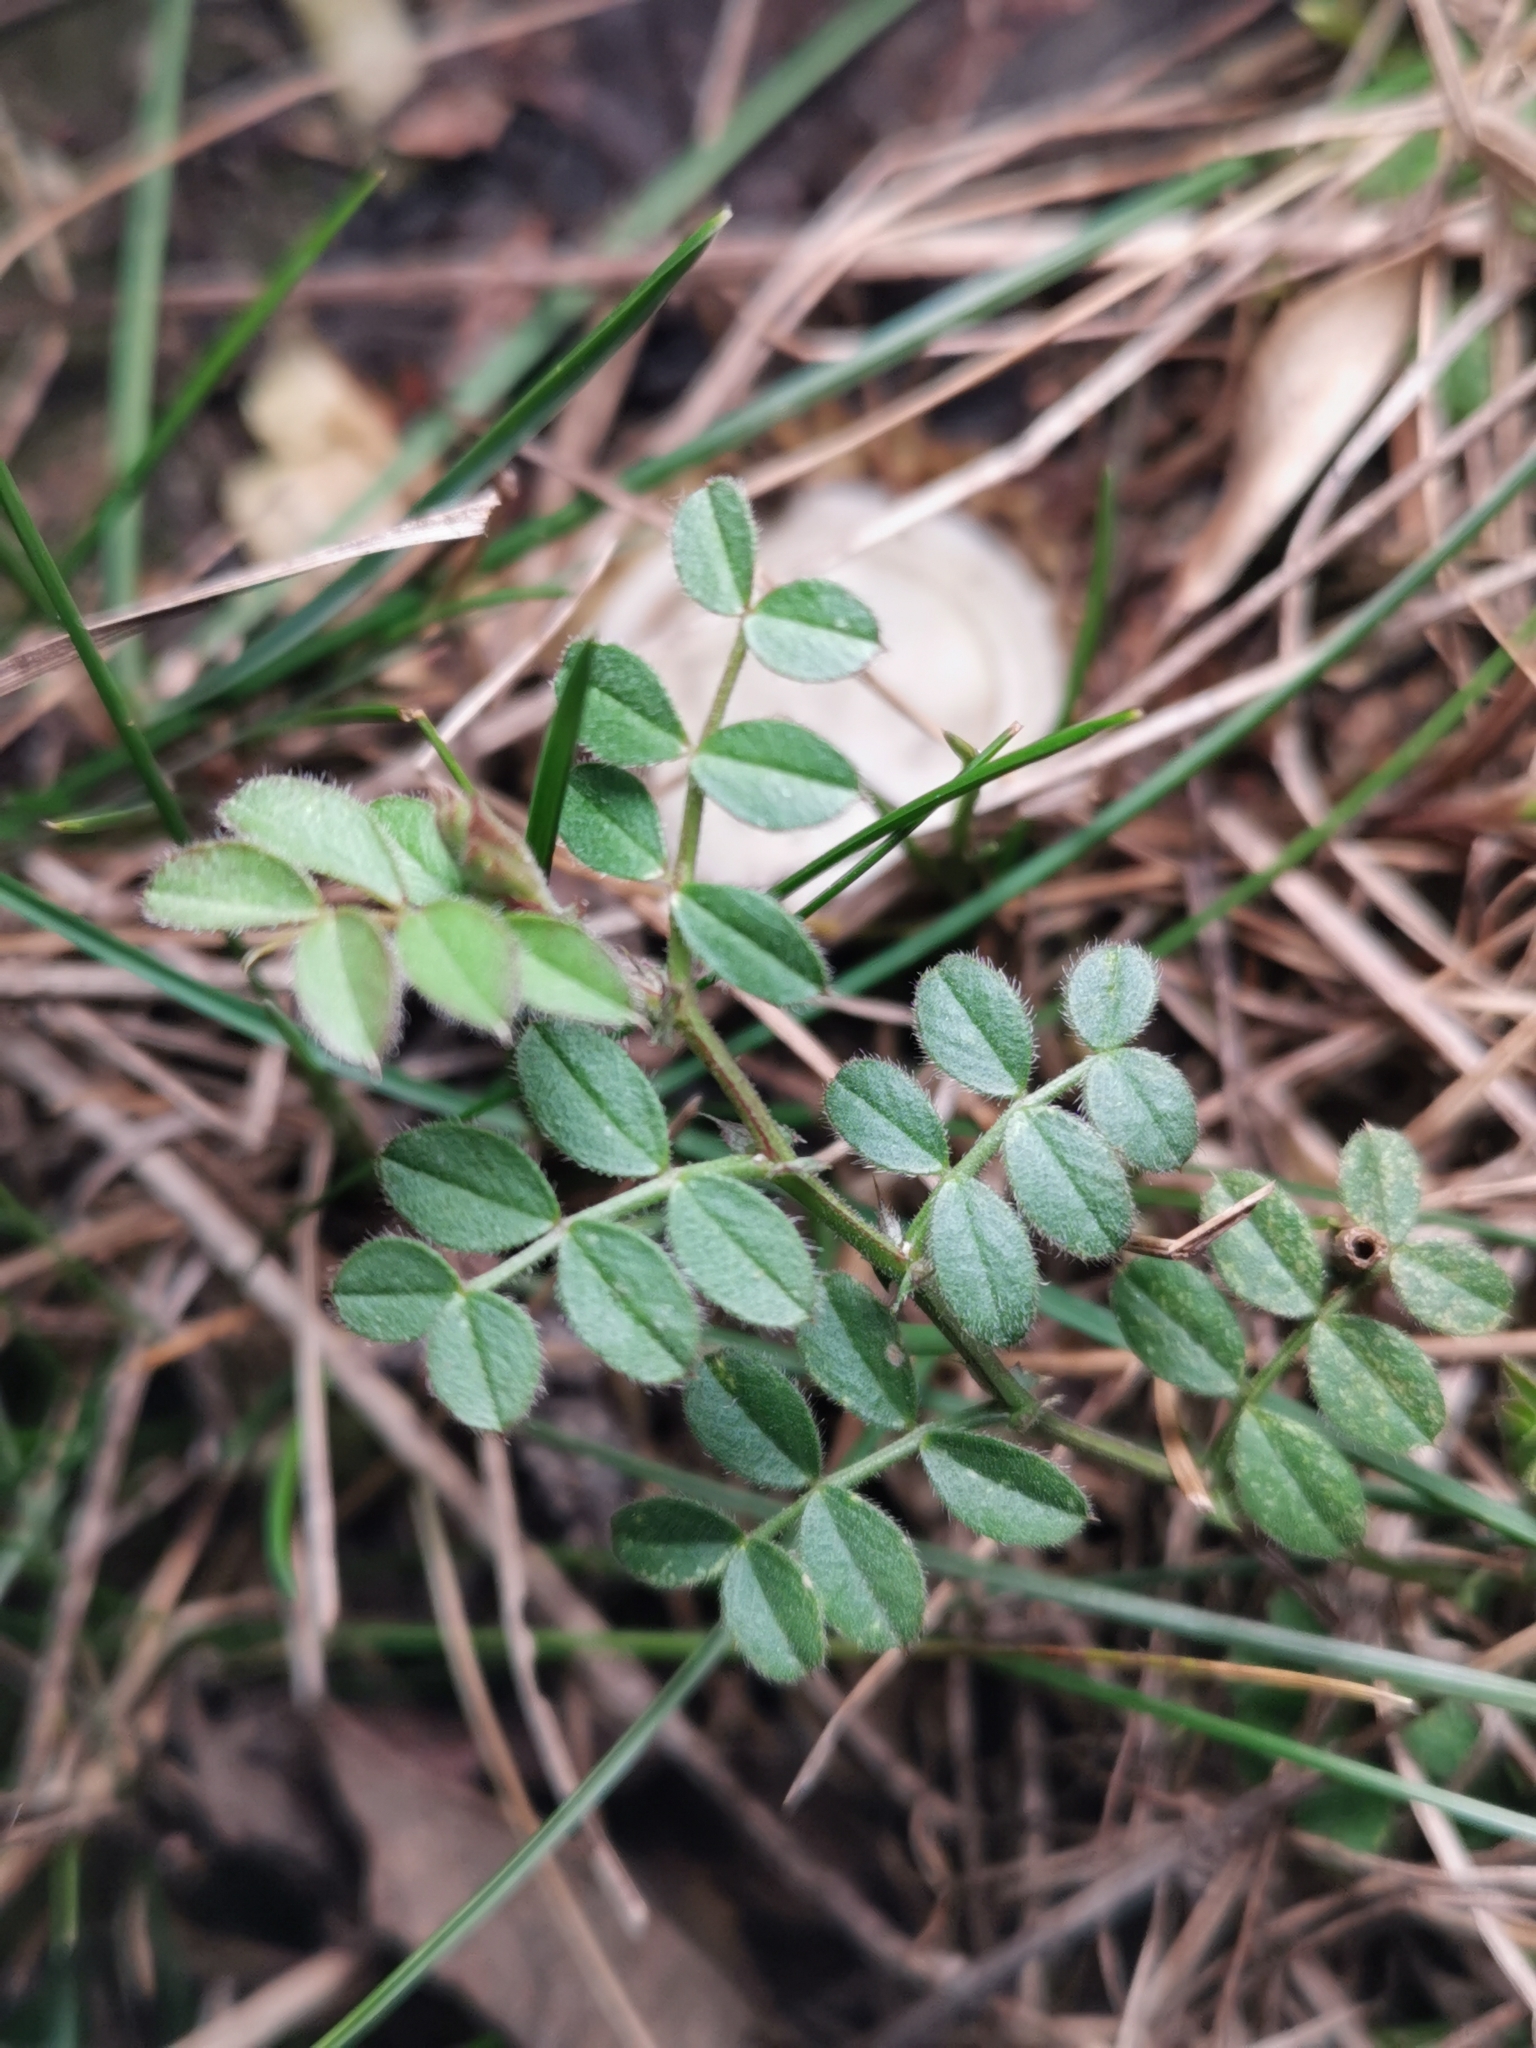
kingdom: Plantae
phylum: Tracheophyta
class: Magnoliopsida
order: Fabales
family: Fabaceae
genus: Vicia
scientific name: Vicia sativa
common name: Garden vetch
